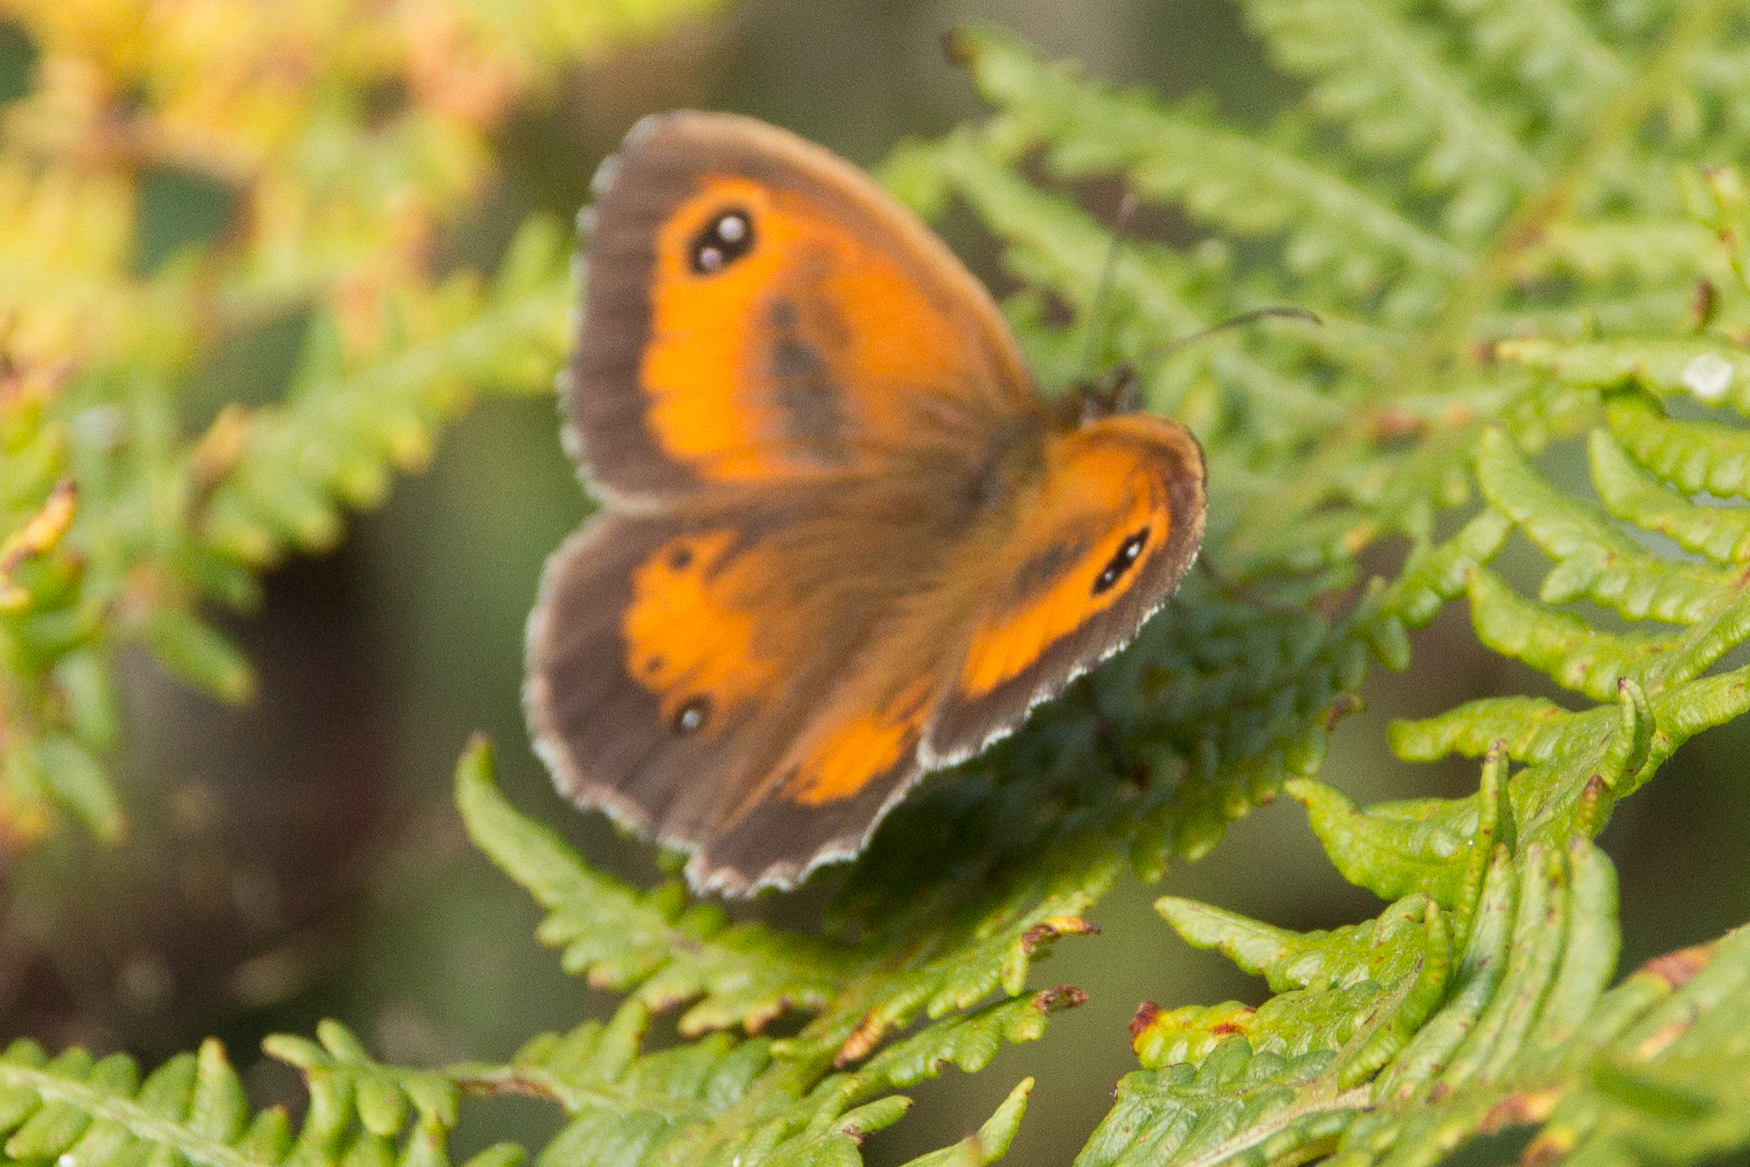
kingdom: Animalia
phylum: Arthropoda
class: Insecta
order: Lepidoptera
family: Nymphalidae
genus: Pyronia
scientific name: Pyronia tithonus
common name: Gatekeeper
